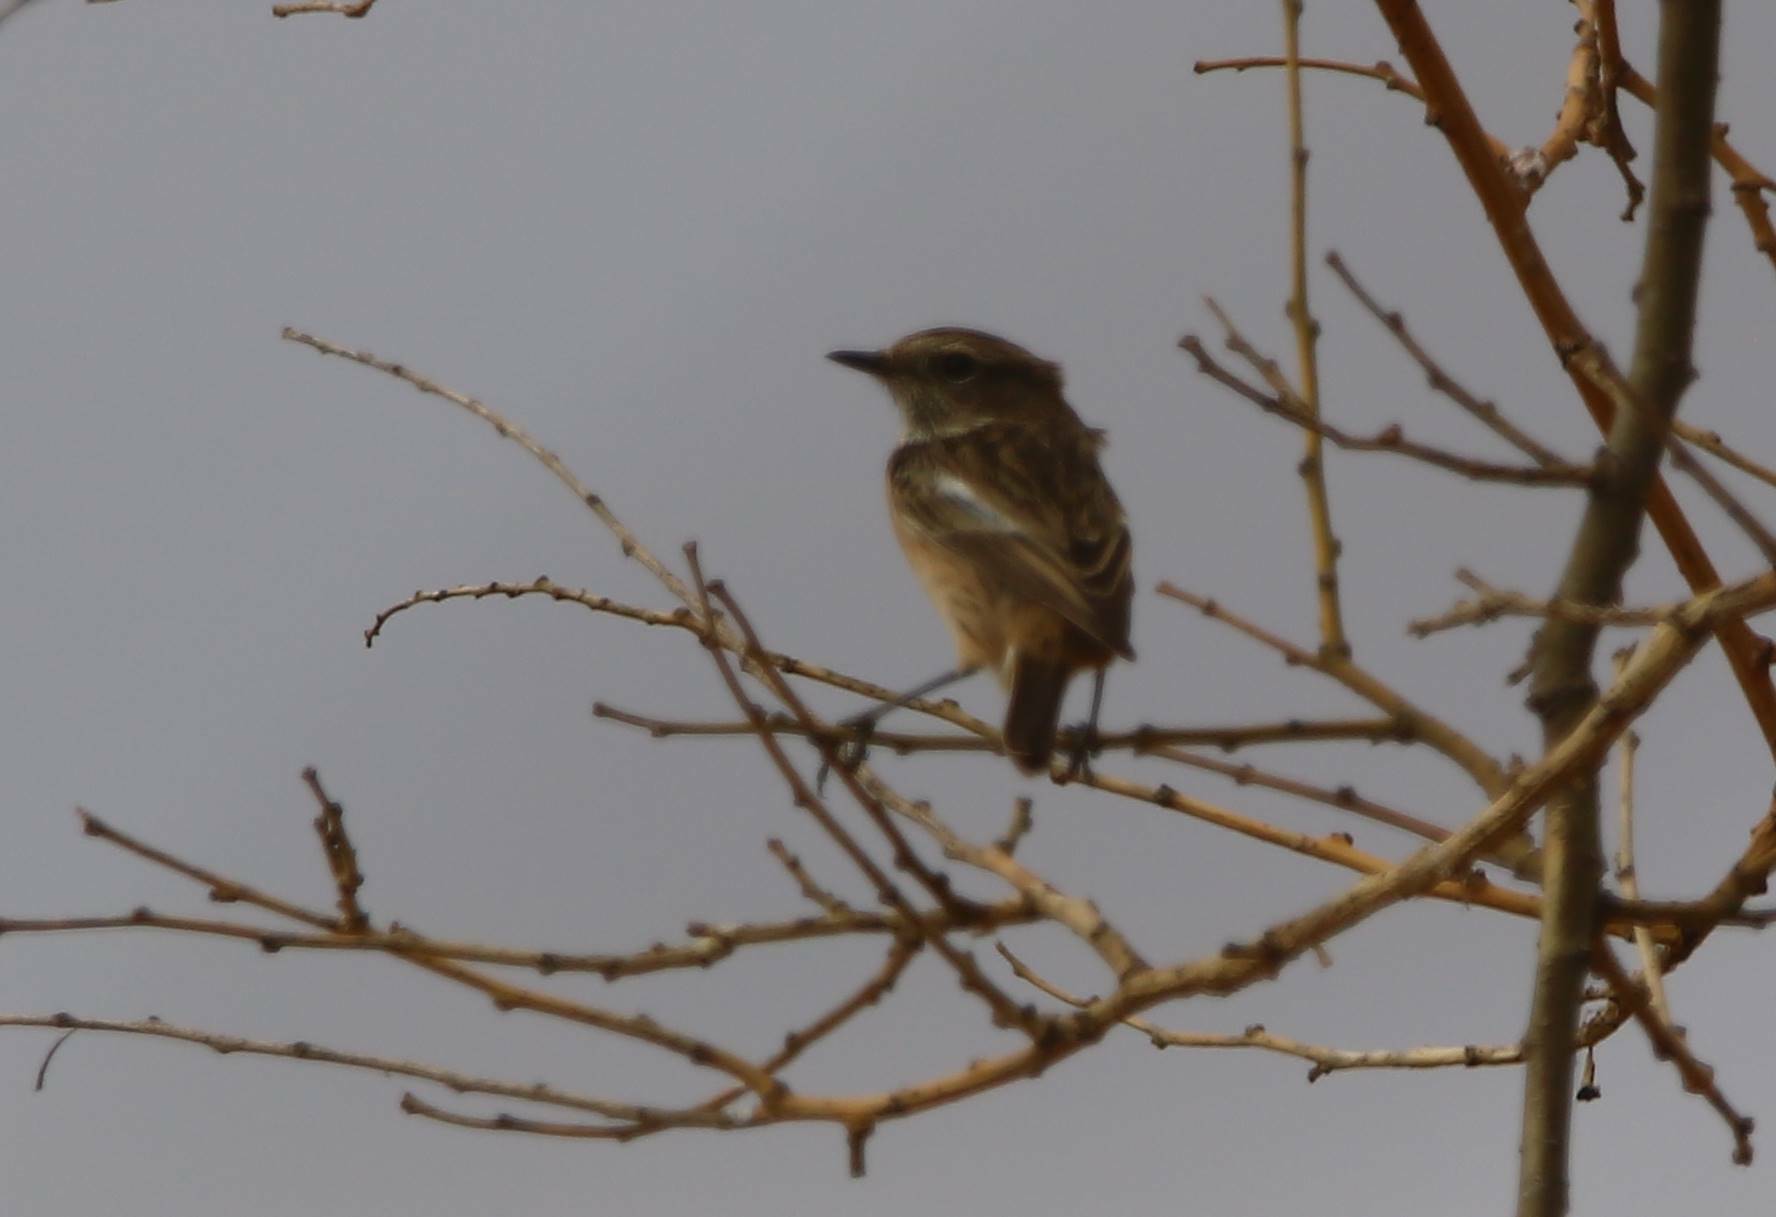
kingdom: Animalia
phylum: Chordata
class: Aves
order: Passeriformes
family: Muscicapidae
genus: Saxicola
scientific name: Saxicola rubicola
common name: European stonechat
